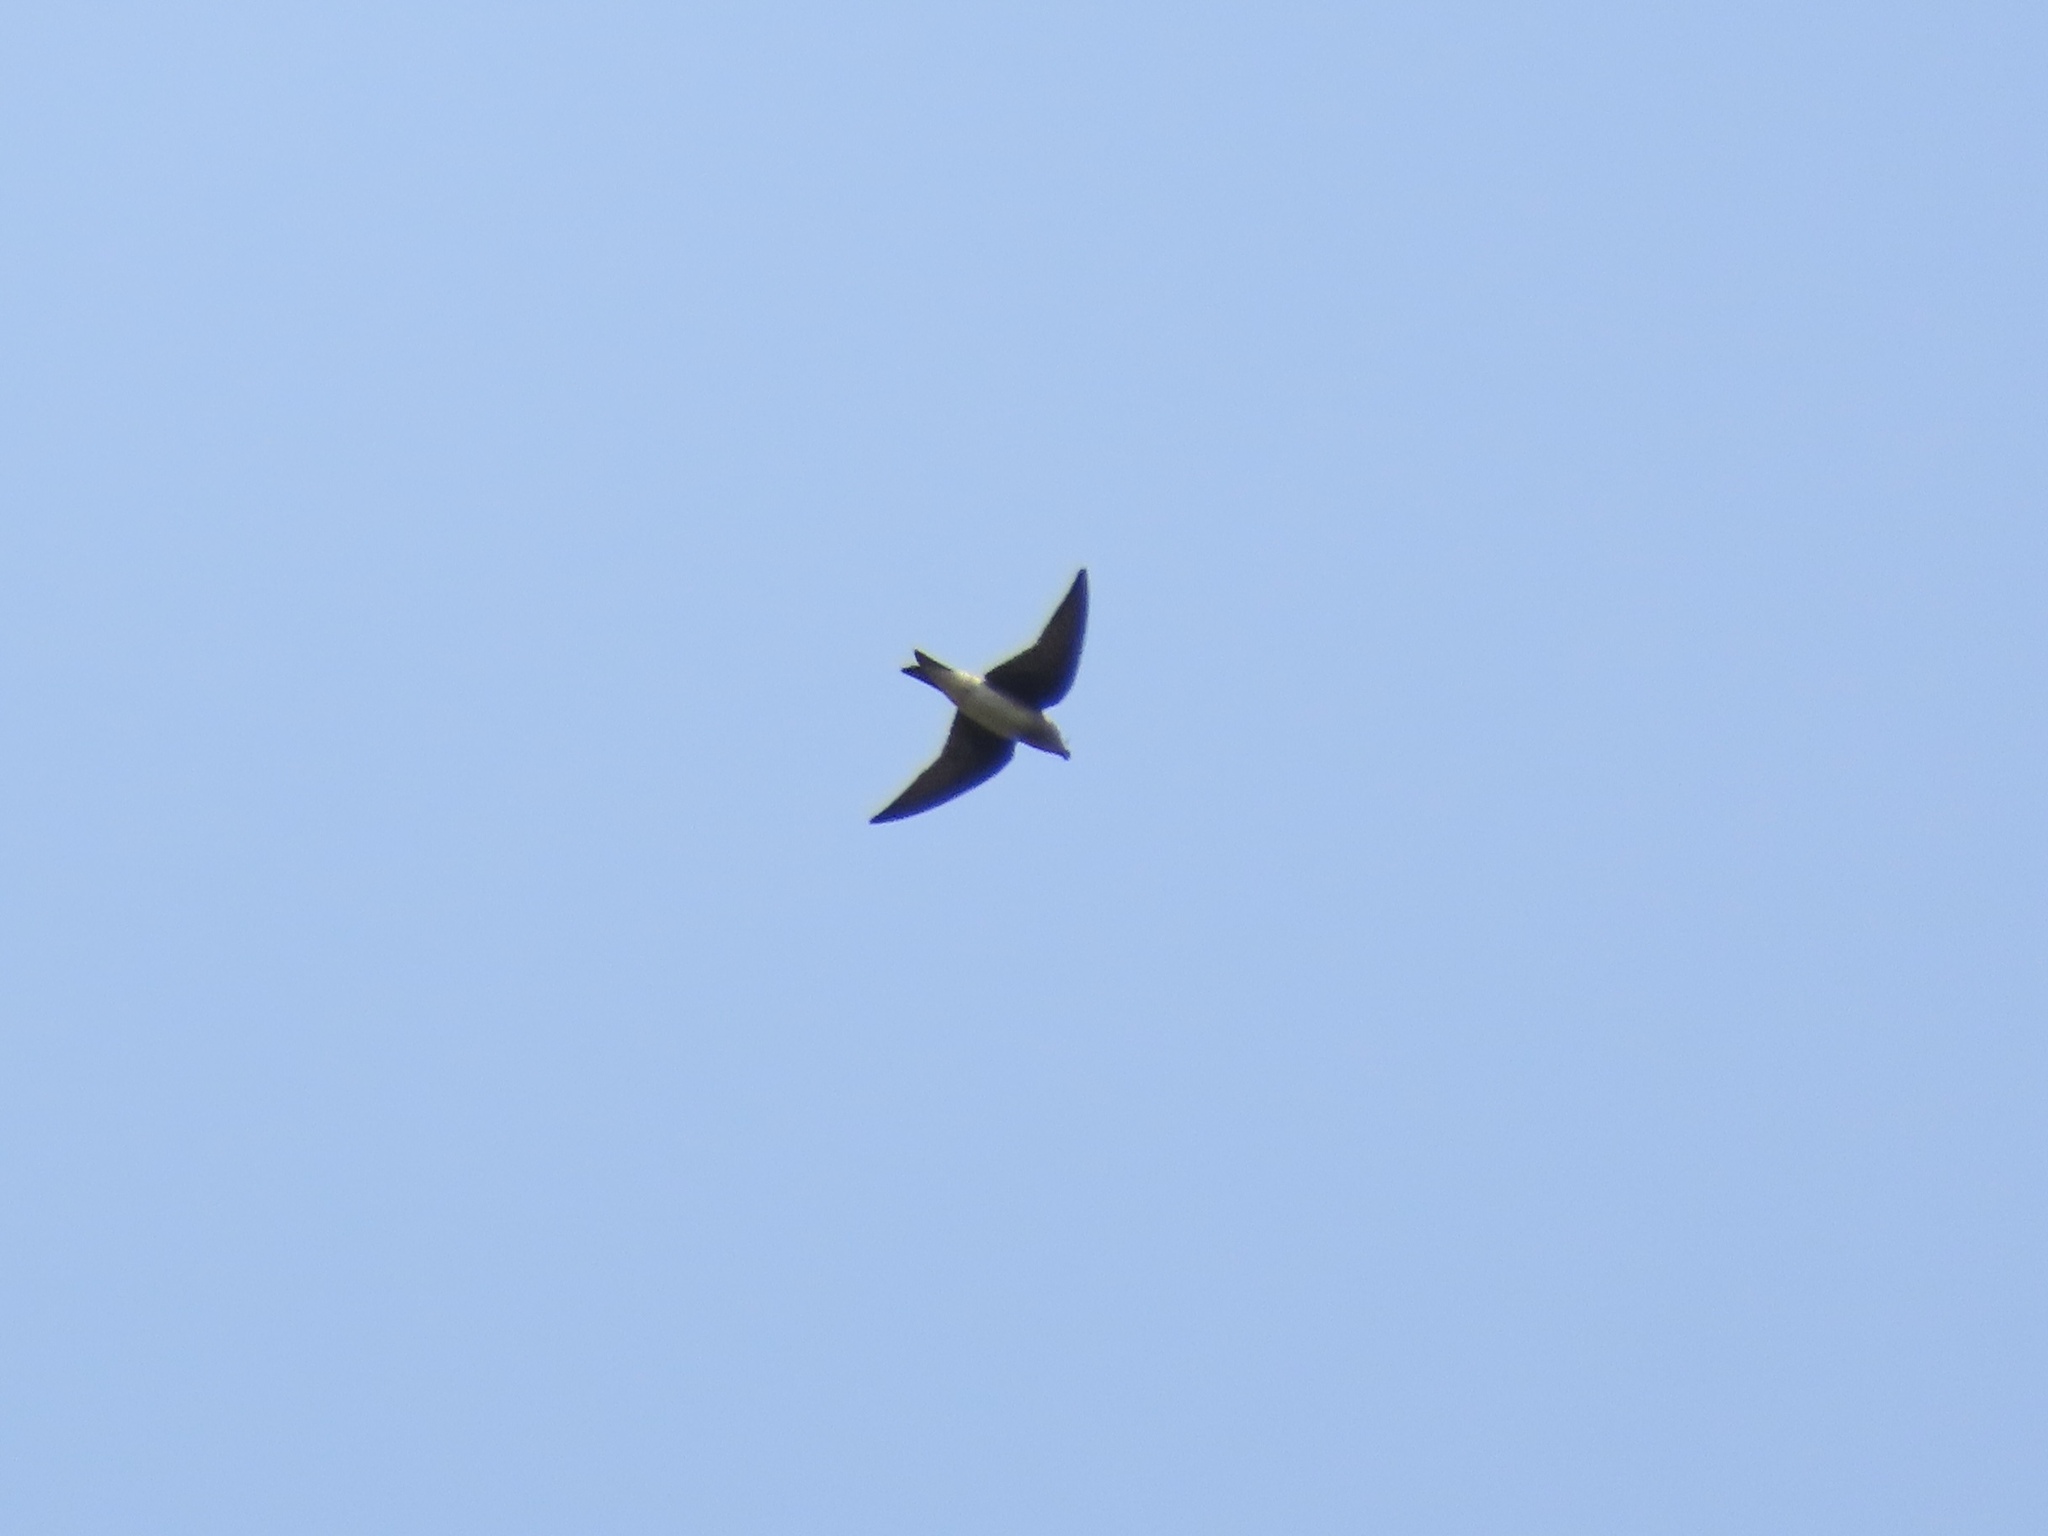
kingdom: Animalia
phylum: Chordata
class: Aves
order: Passeriformes
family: Hirundinidae
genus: Progne
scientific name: Progne subis
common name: Purple martin
